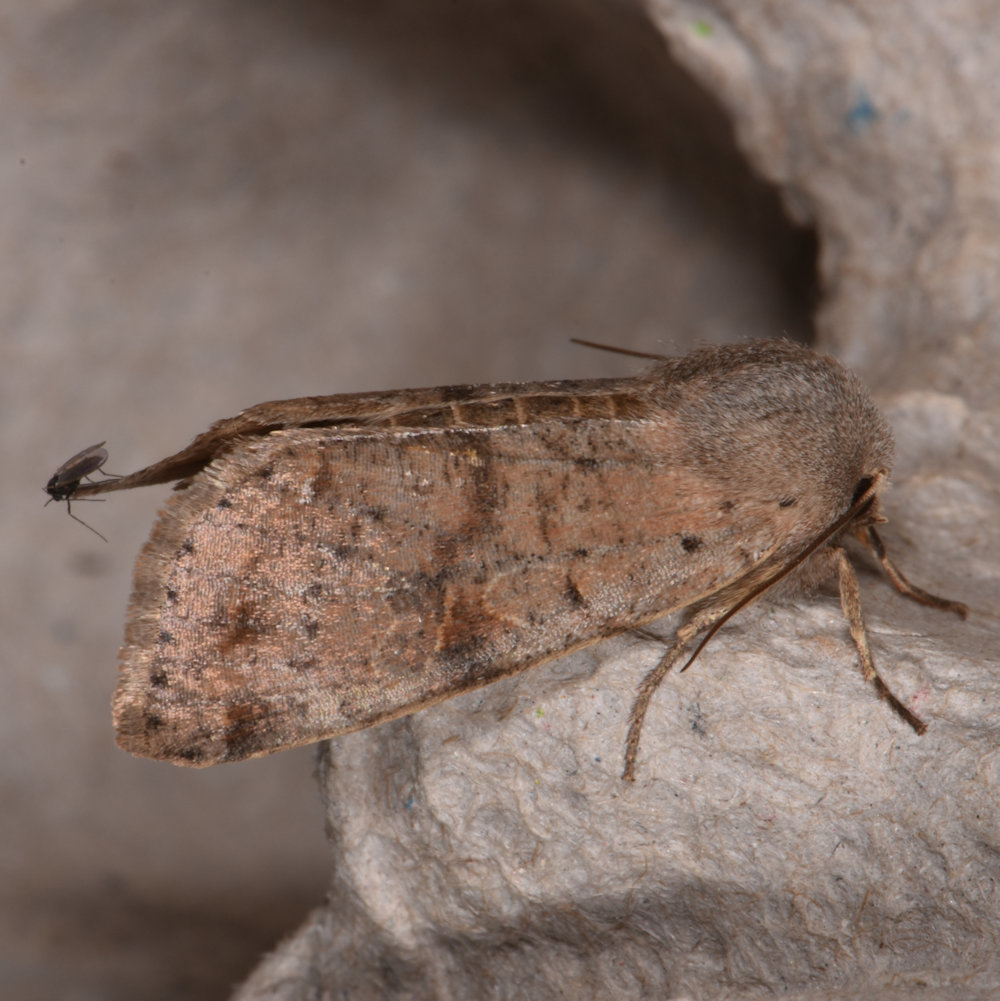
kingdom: Animalia
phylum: Arthropoda
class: Insecta
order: Lepidoptera
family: Noctuidae
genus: Orthosia
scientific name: Orthosia hibisci
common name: Green fruitworm
